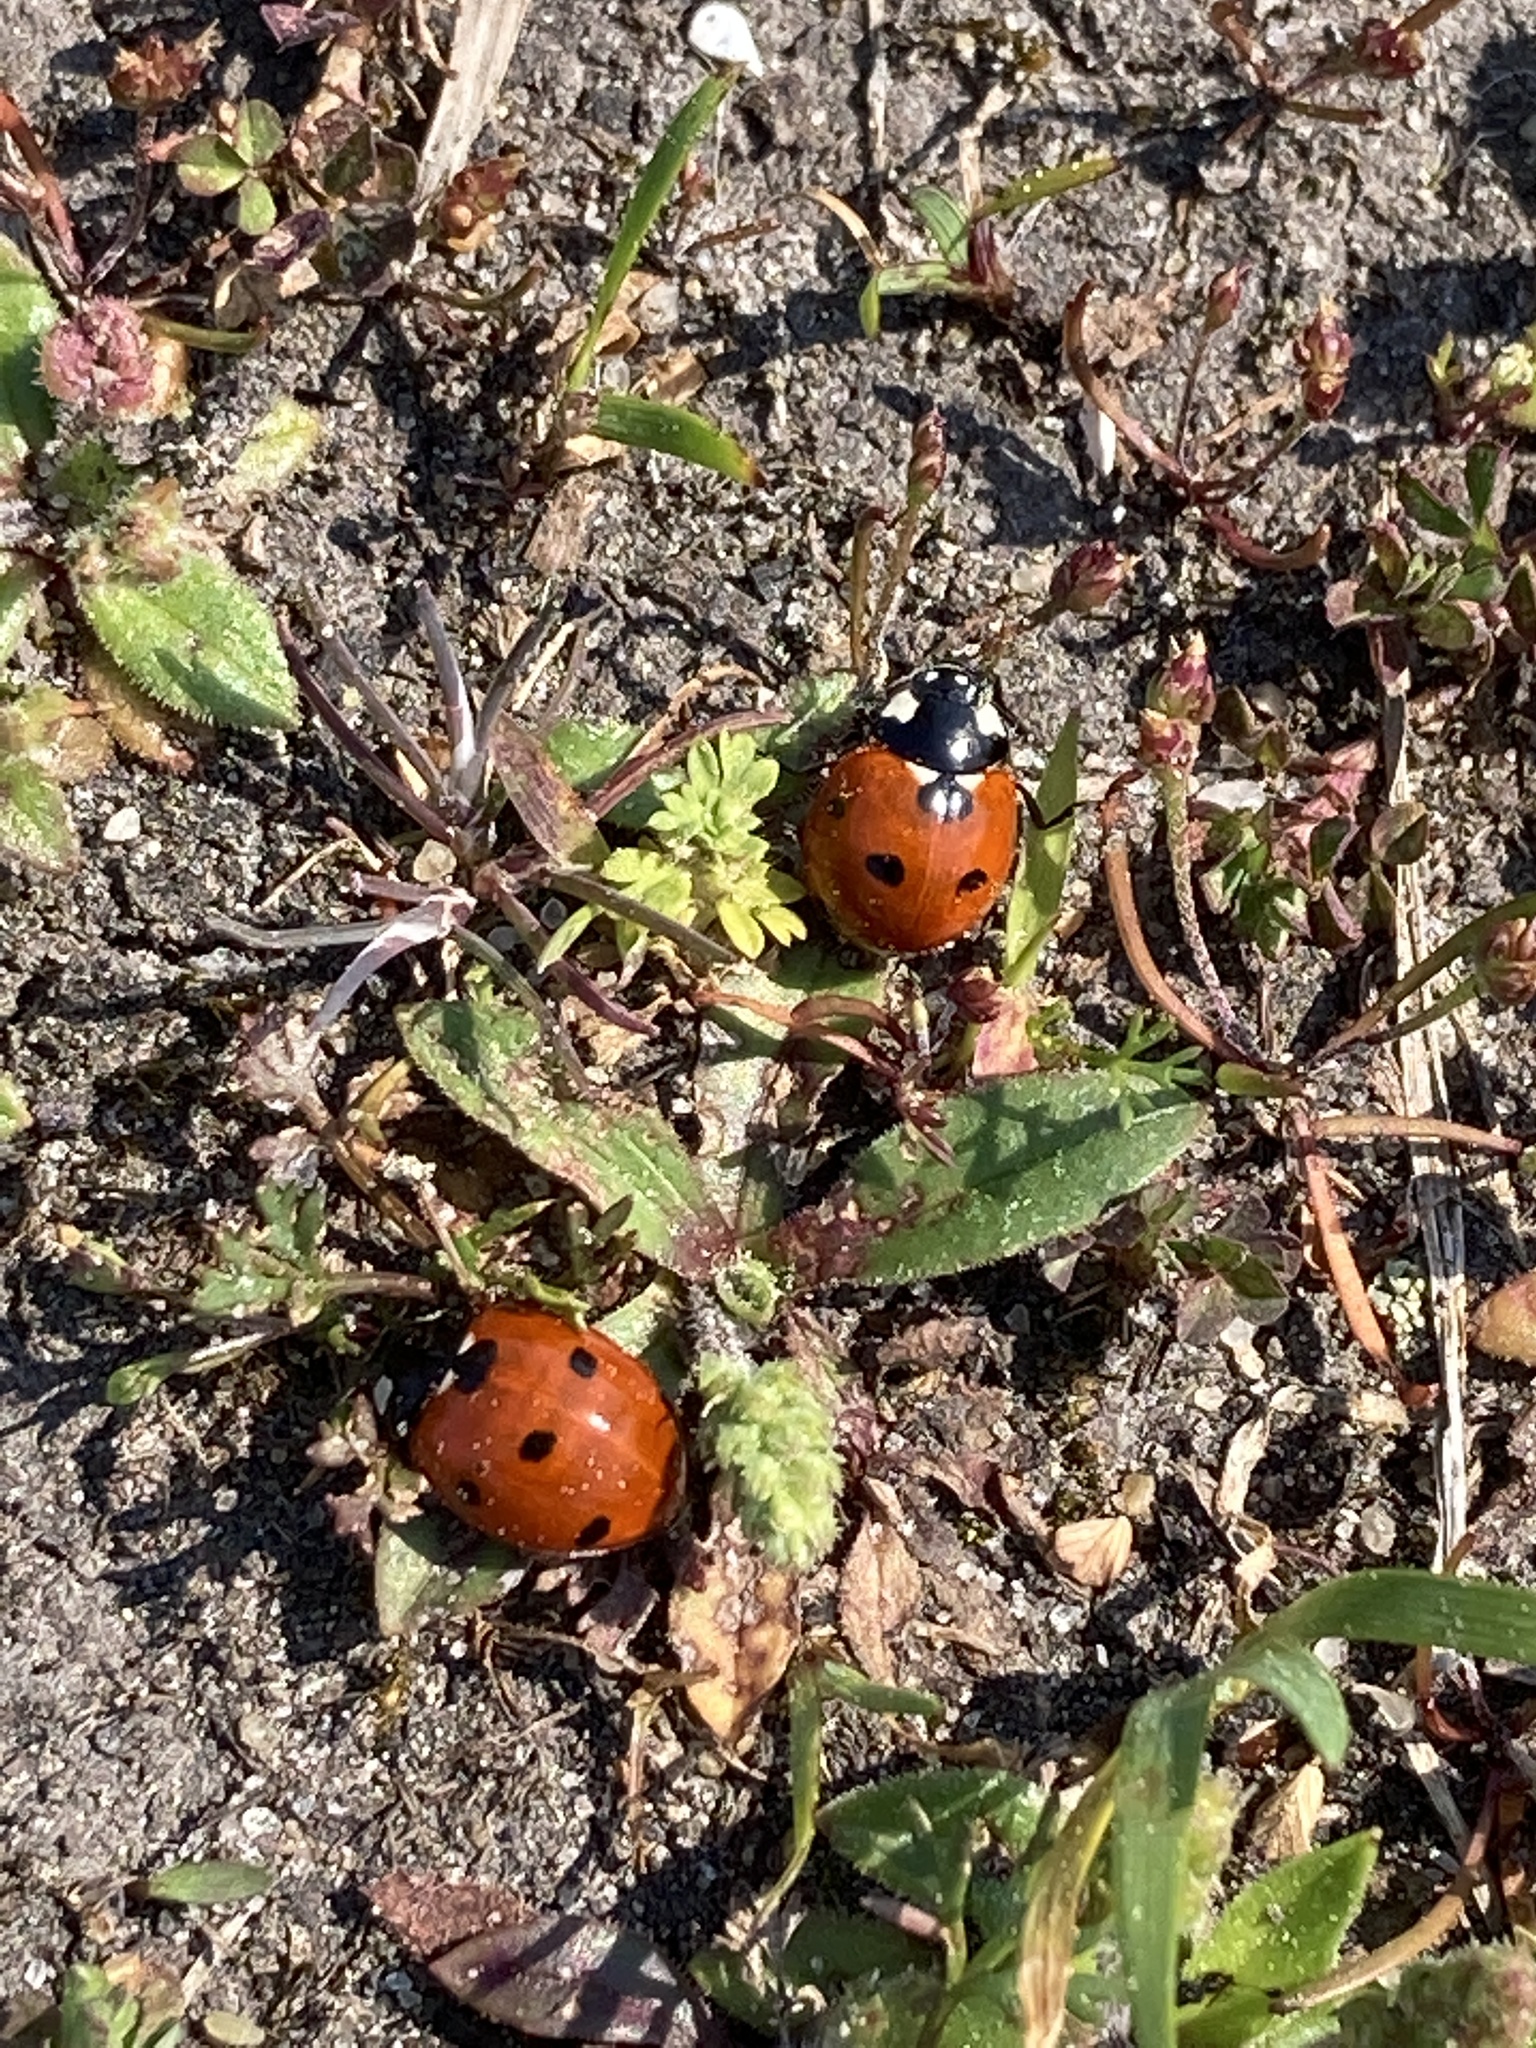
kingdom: Animalia
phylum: Arthropoda
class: Insecta
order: Coleoptera
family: Coccinellidae
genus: Coccinella
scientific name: Coccinella septempunctata
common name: Sevenspotted lady beetle
